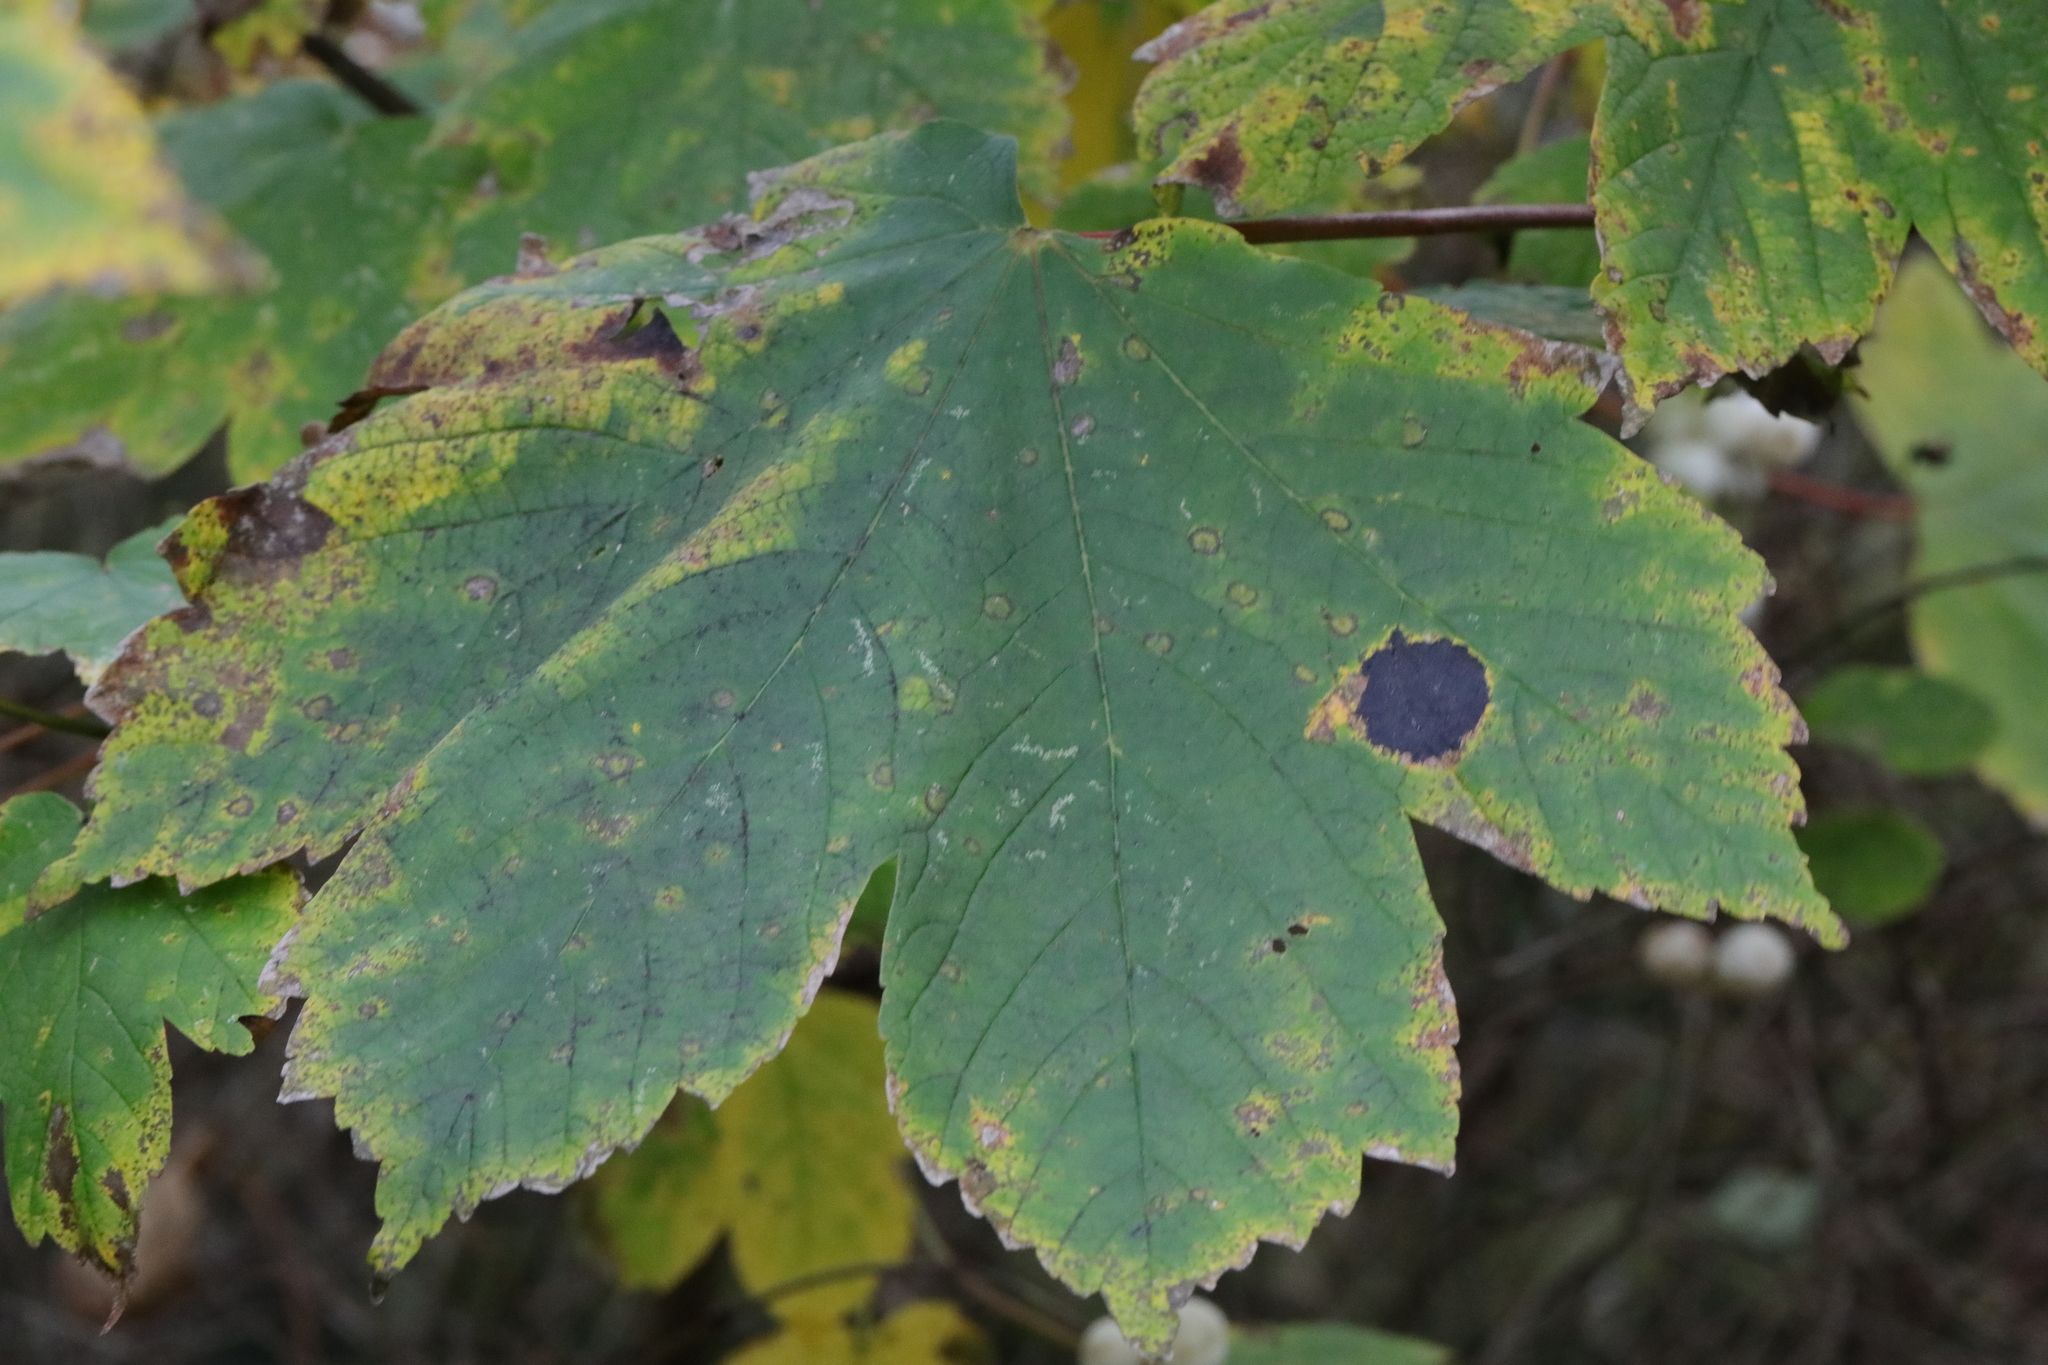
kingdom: Fungi
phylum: Ascomycota
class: Leotiomycetes
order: Rhytismatales
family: Rhytismataceae
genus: Rhytisma
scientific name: Rhytisma acerinum
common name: European tar spot
